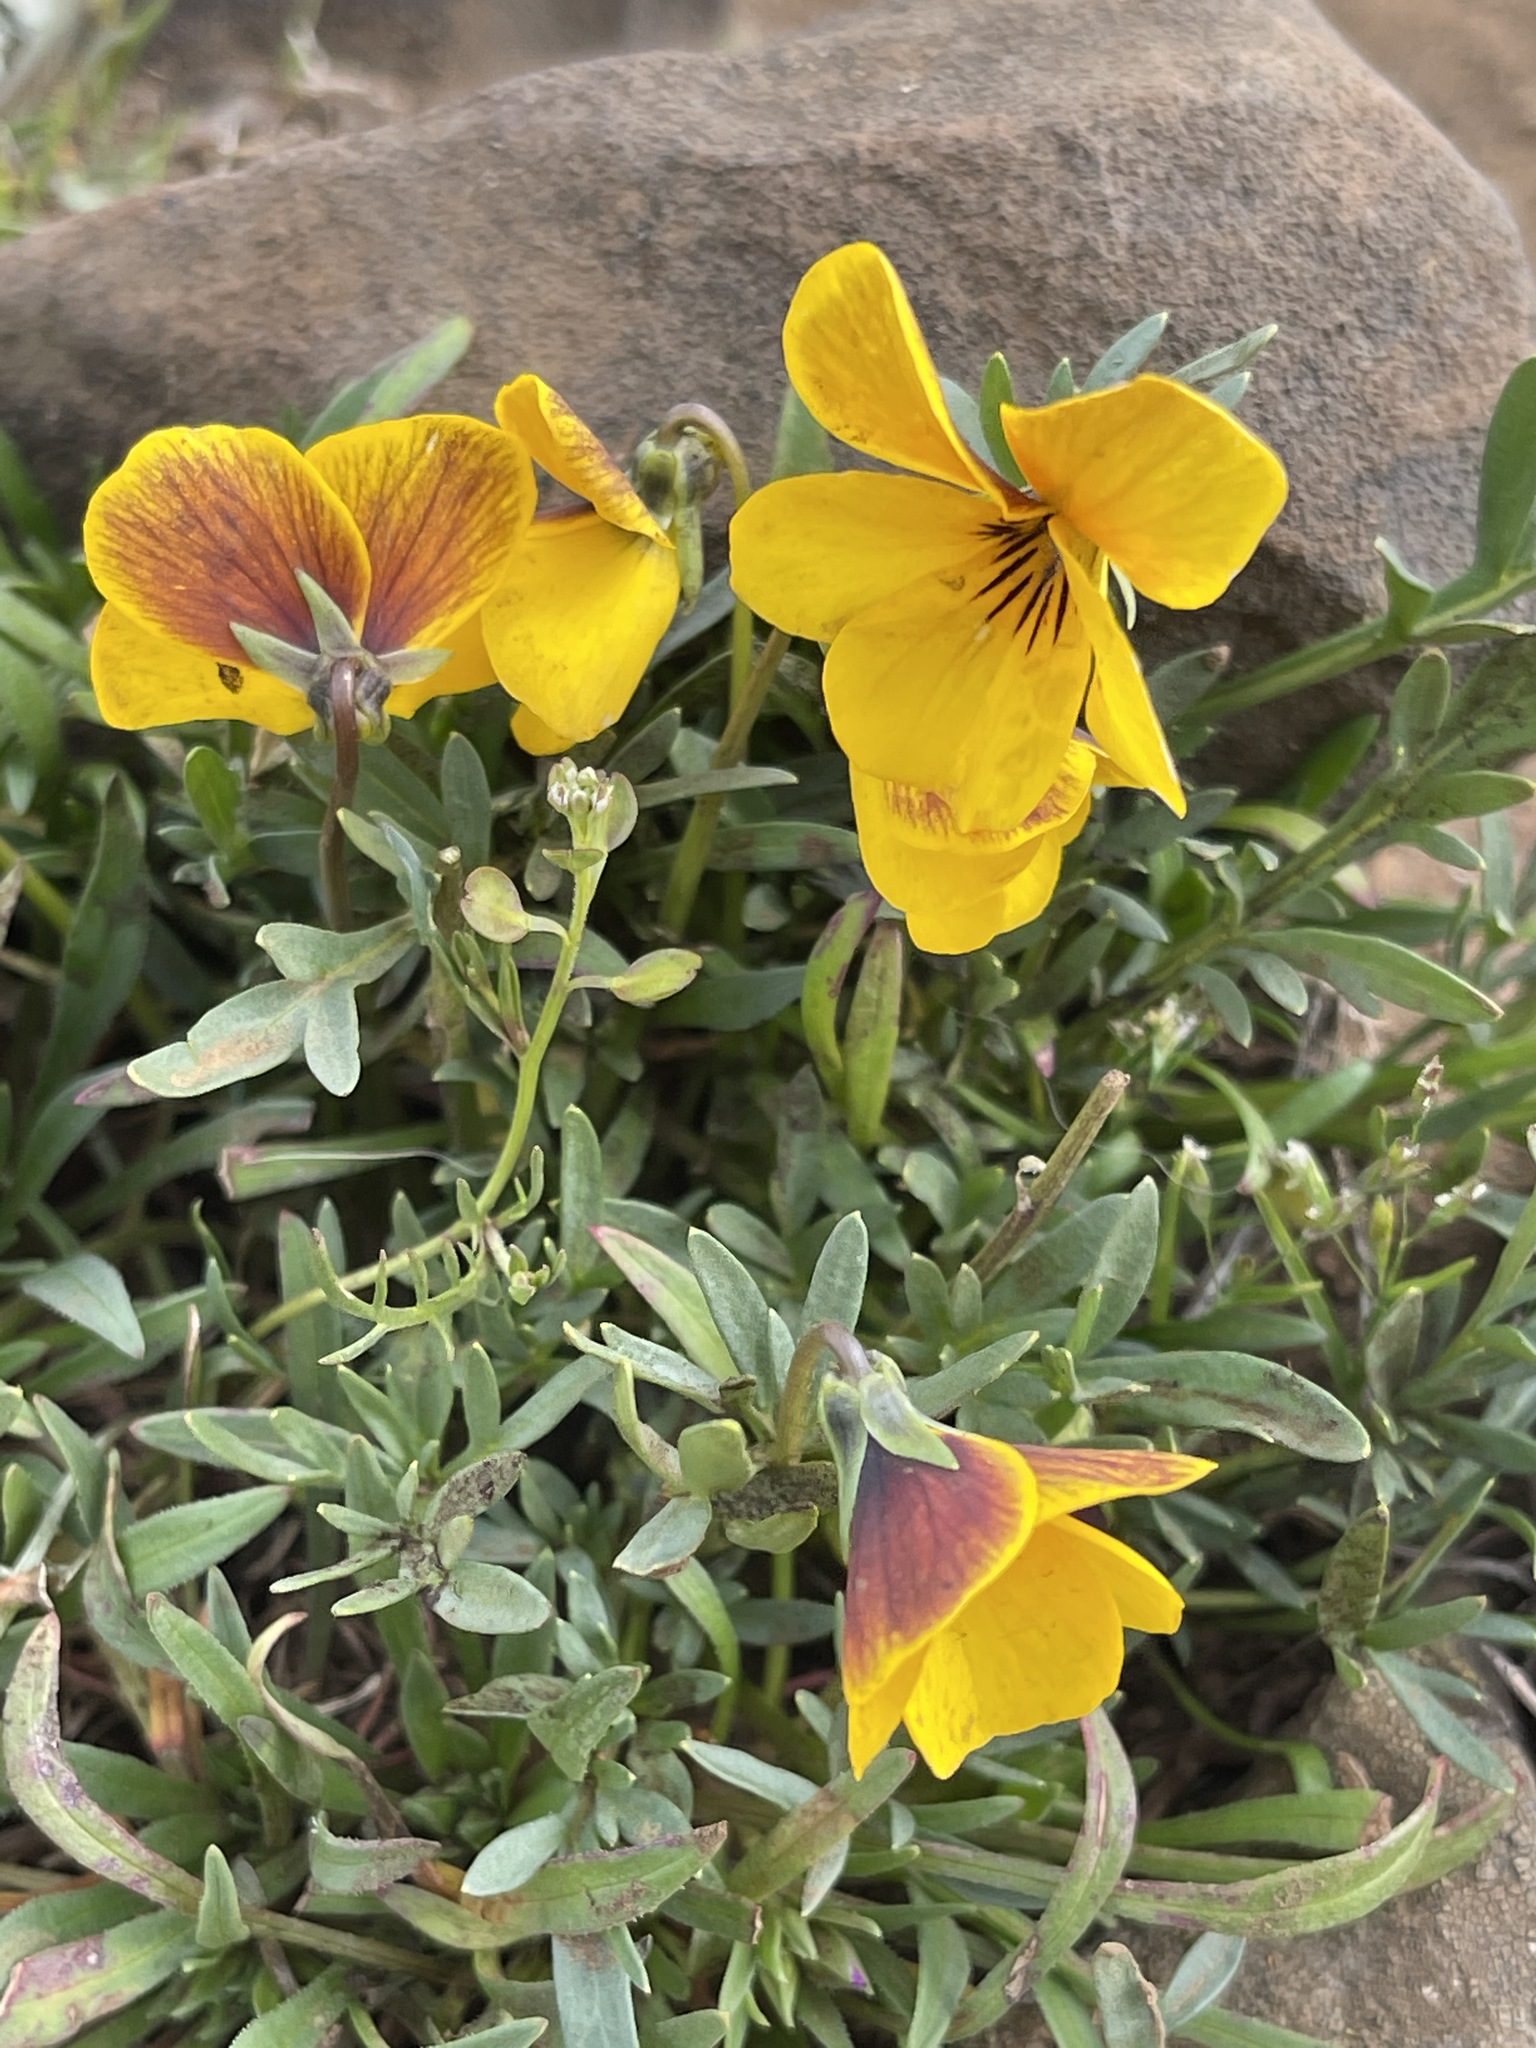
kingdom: Plantae
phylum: Tracheophyta
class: Magnoliopsida
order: Malpighiales
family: Violaceae
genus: Viola
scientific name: Viola douglasii
